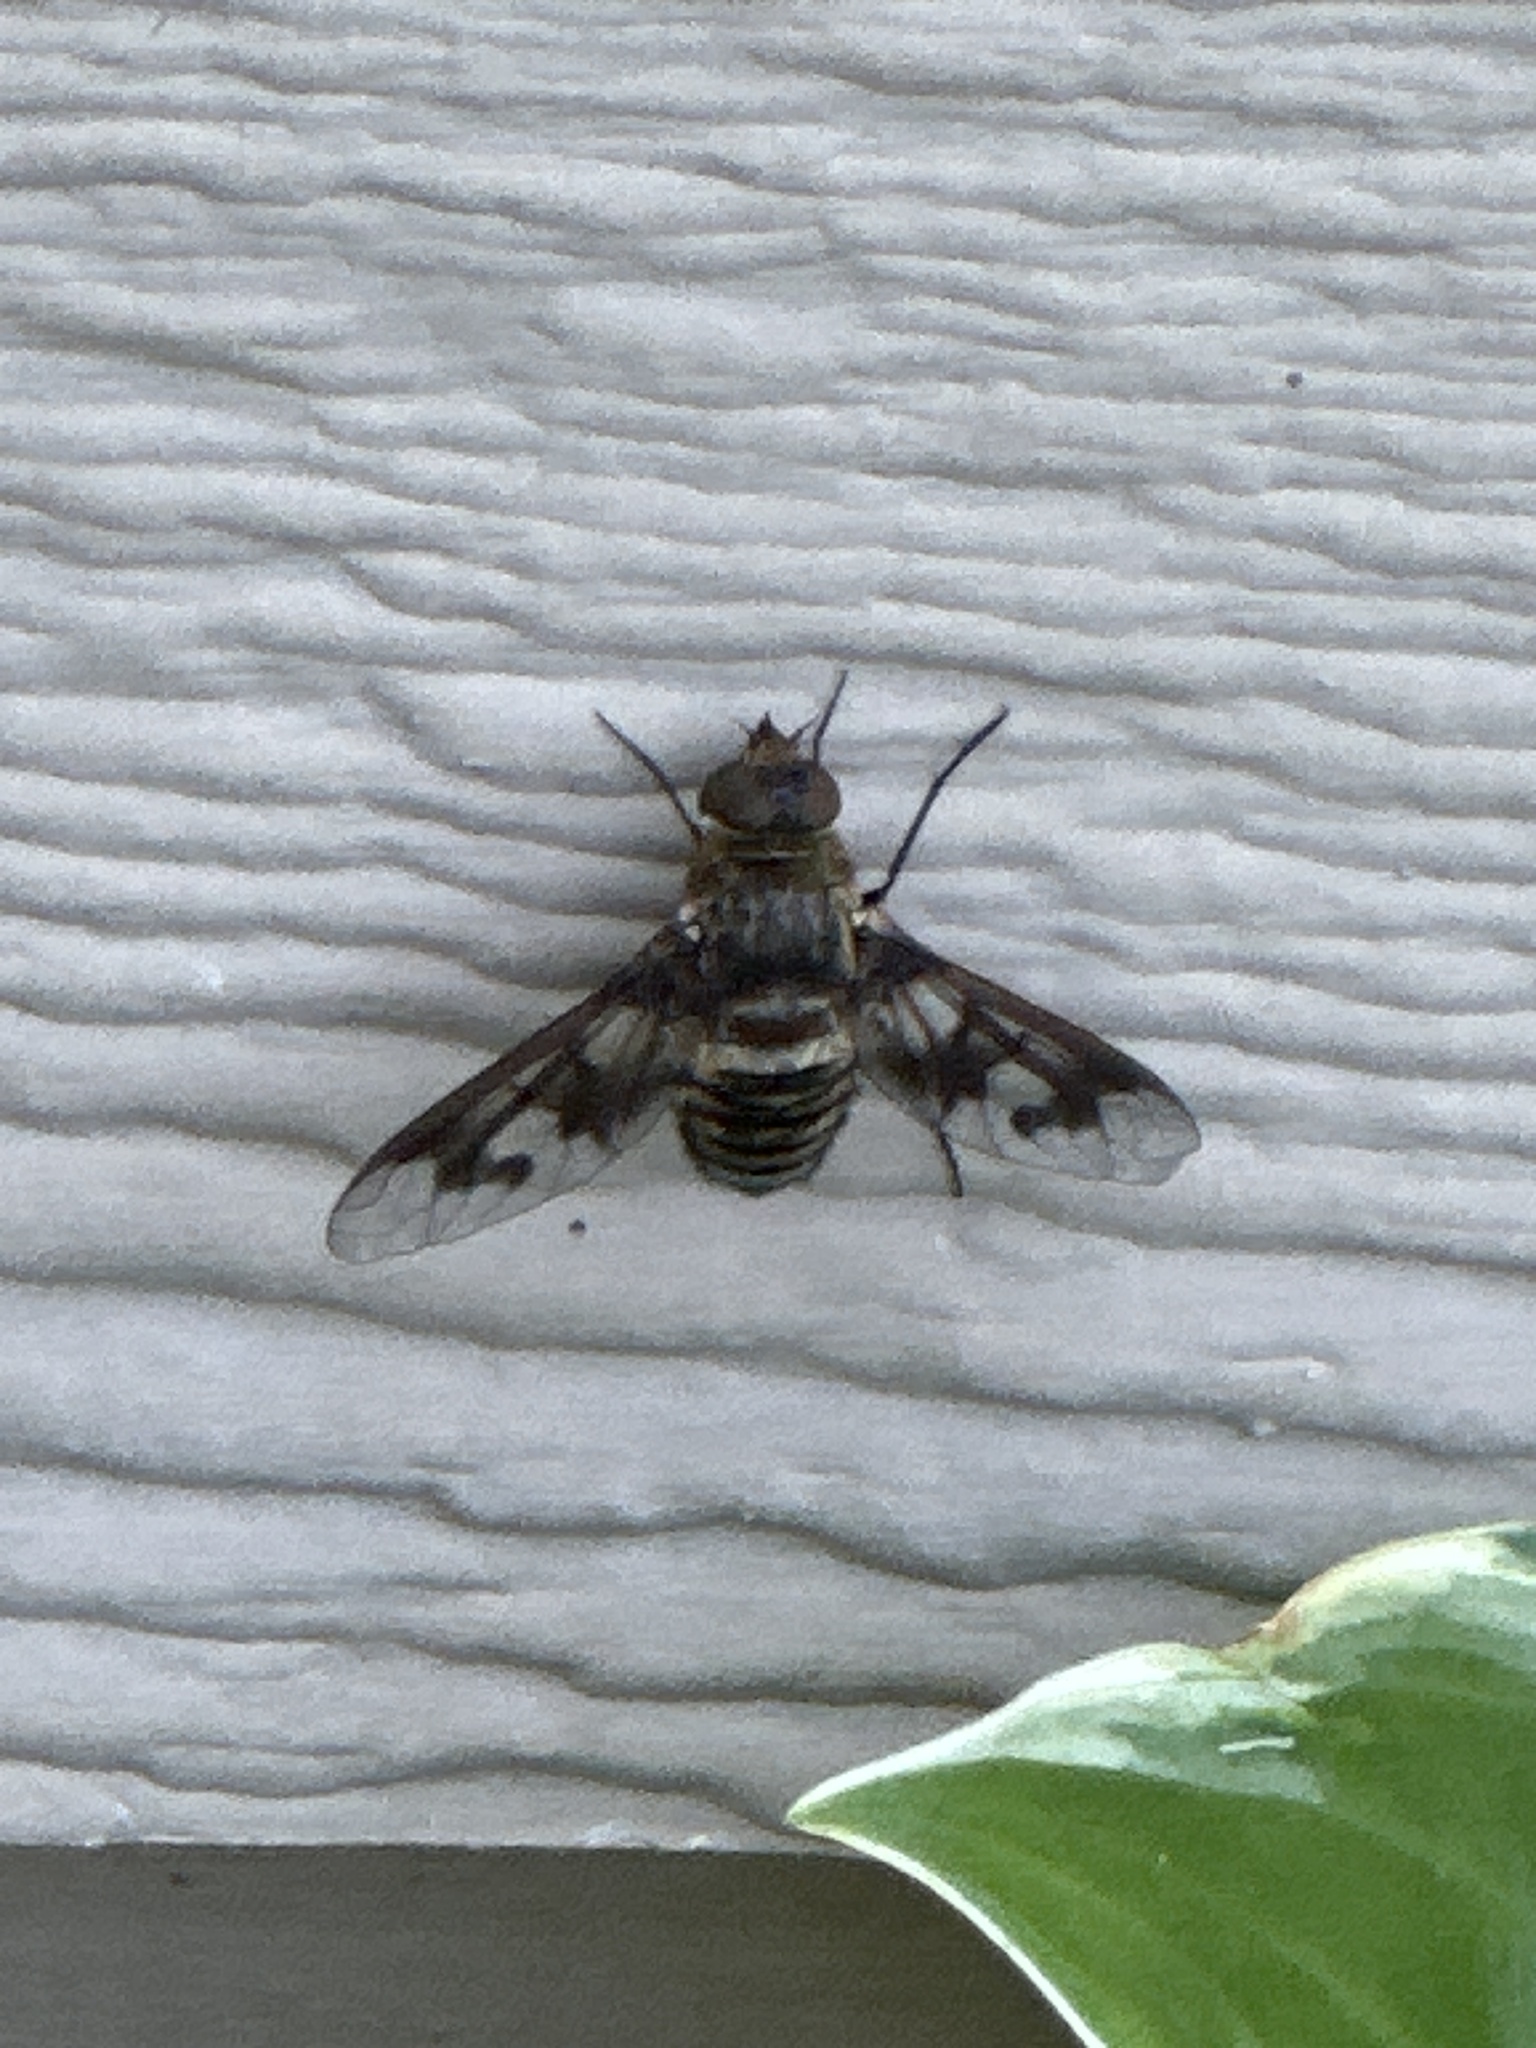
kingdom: Animalia
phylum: Arthropoda
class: Insecta
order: Diptera
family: Bombyliidae
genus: Exoprosopa
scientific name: Exoprosopa fascipennis
